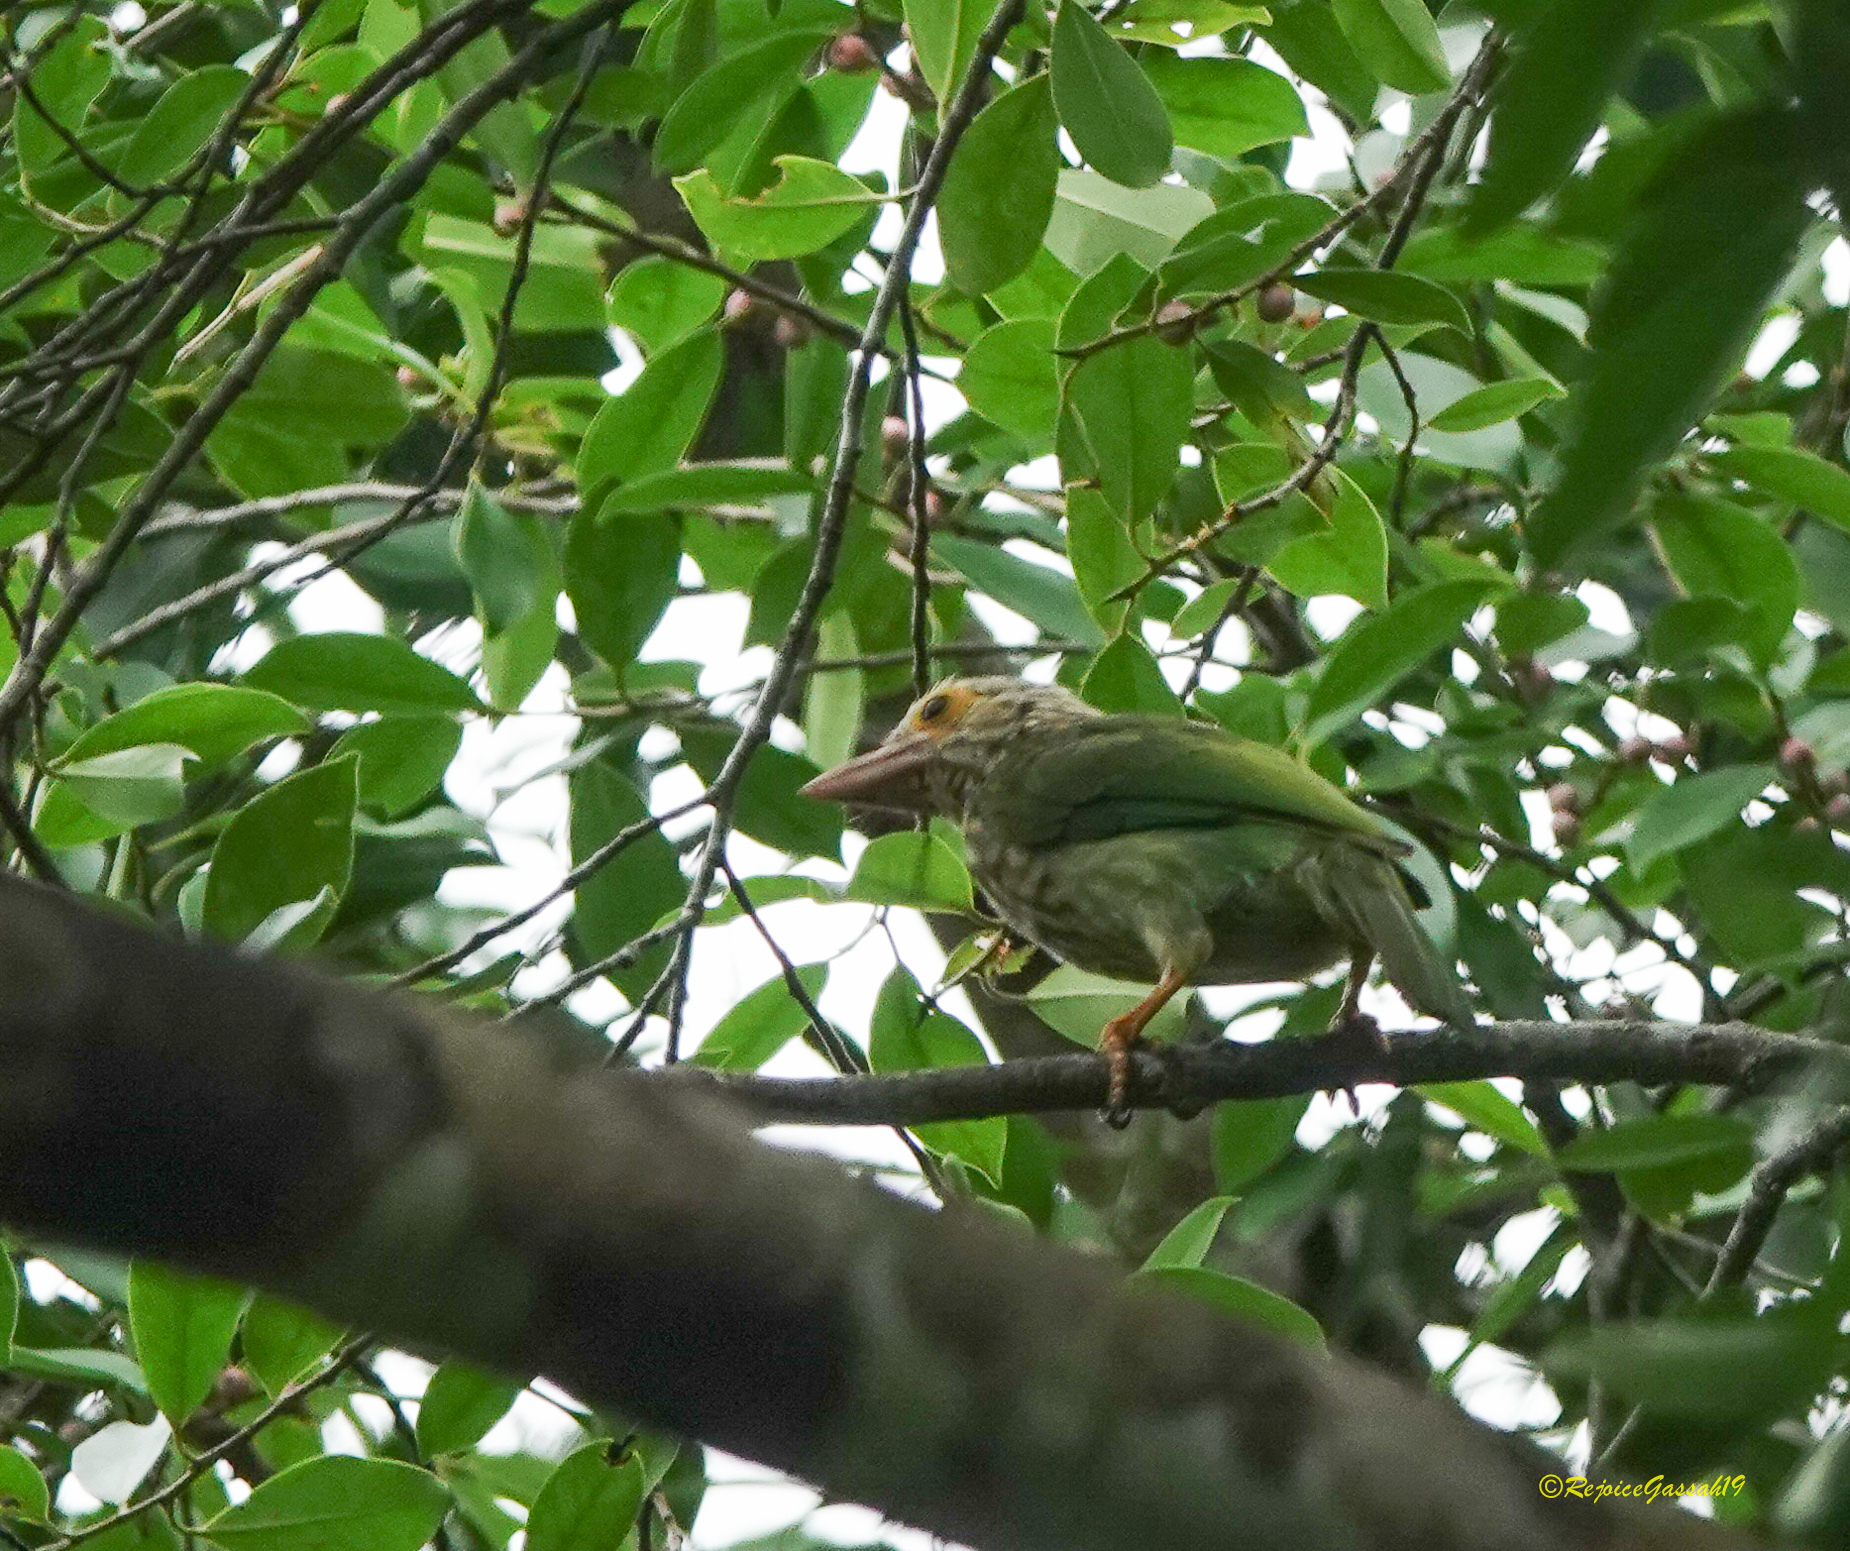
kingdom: Animalia
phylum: Chordata
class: Aves
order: Piciformes
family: Megalaimidae
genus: Psilopogon
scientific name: Psilopogon lineatus
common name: Lineated barbet
